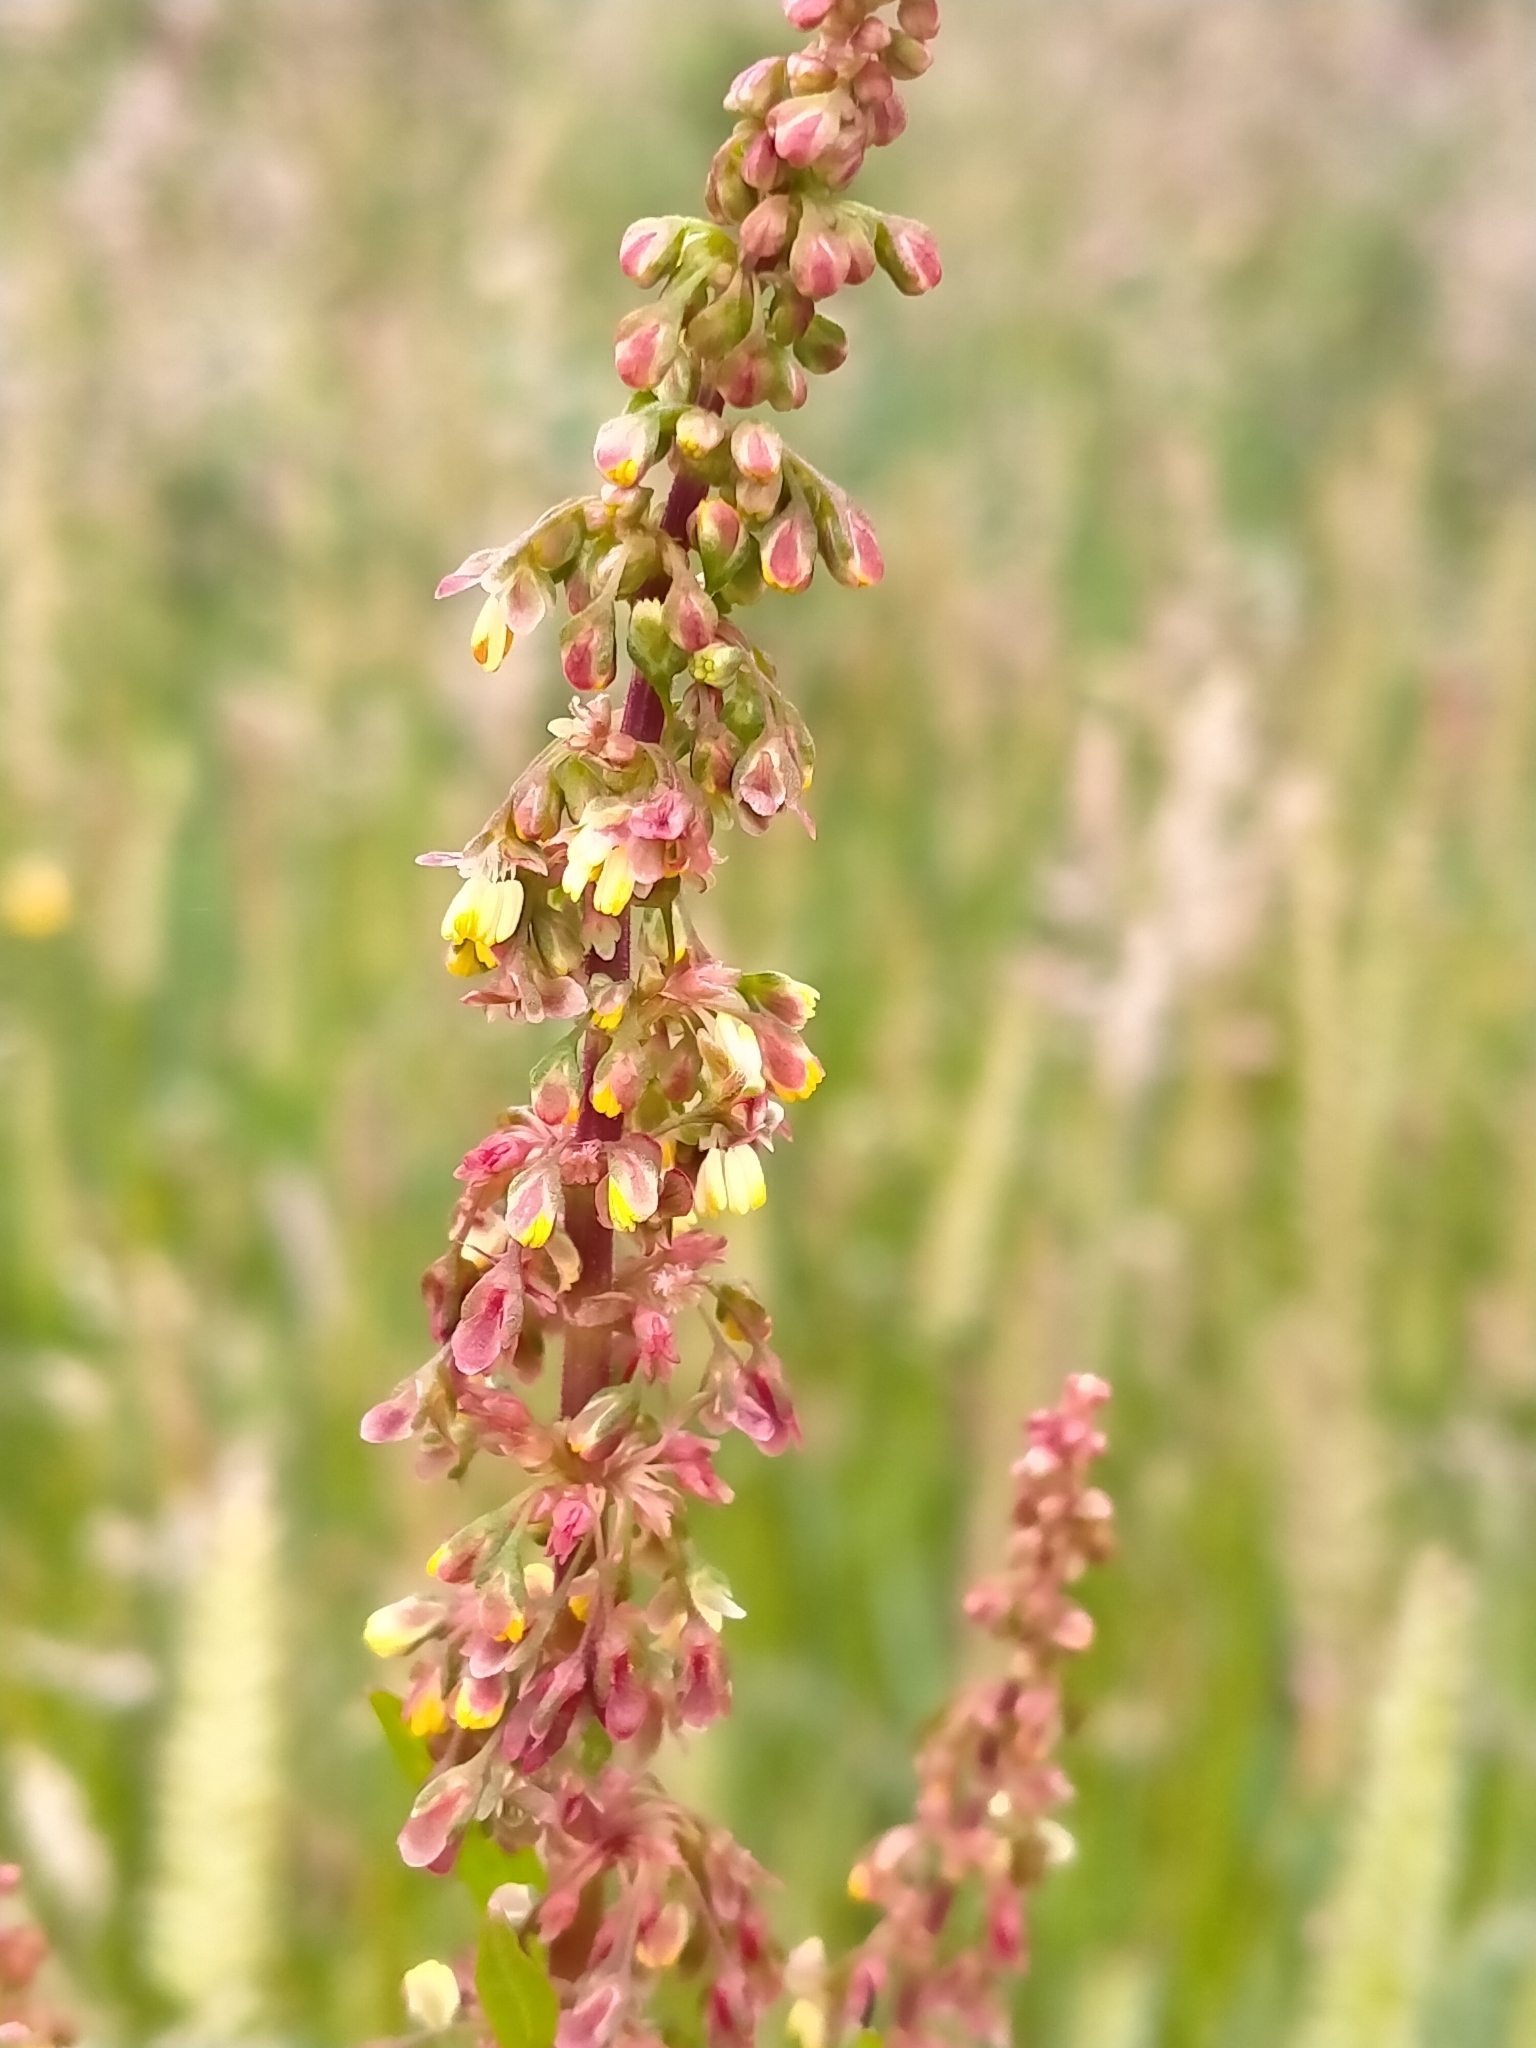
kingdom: Plantae
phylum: Tracheophyta
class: Magnoliopsida
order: Caryophyllales
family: Polygonaceae
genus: Rumex
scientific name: Rumex obtusifolius
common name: Bitter dock
